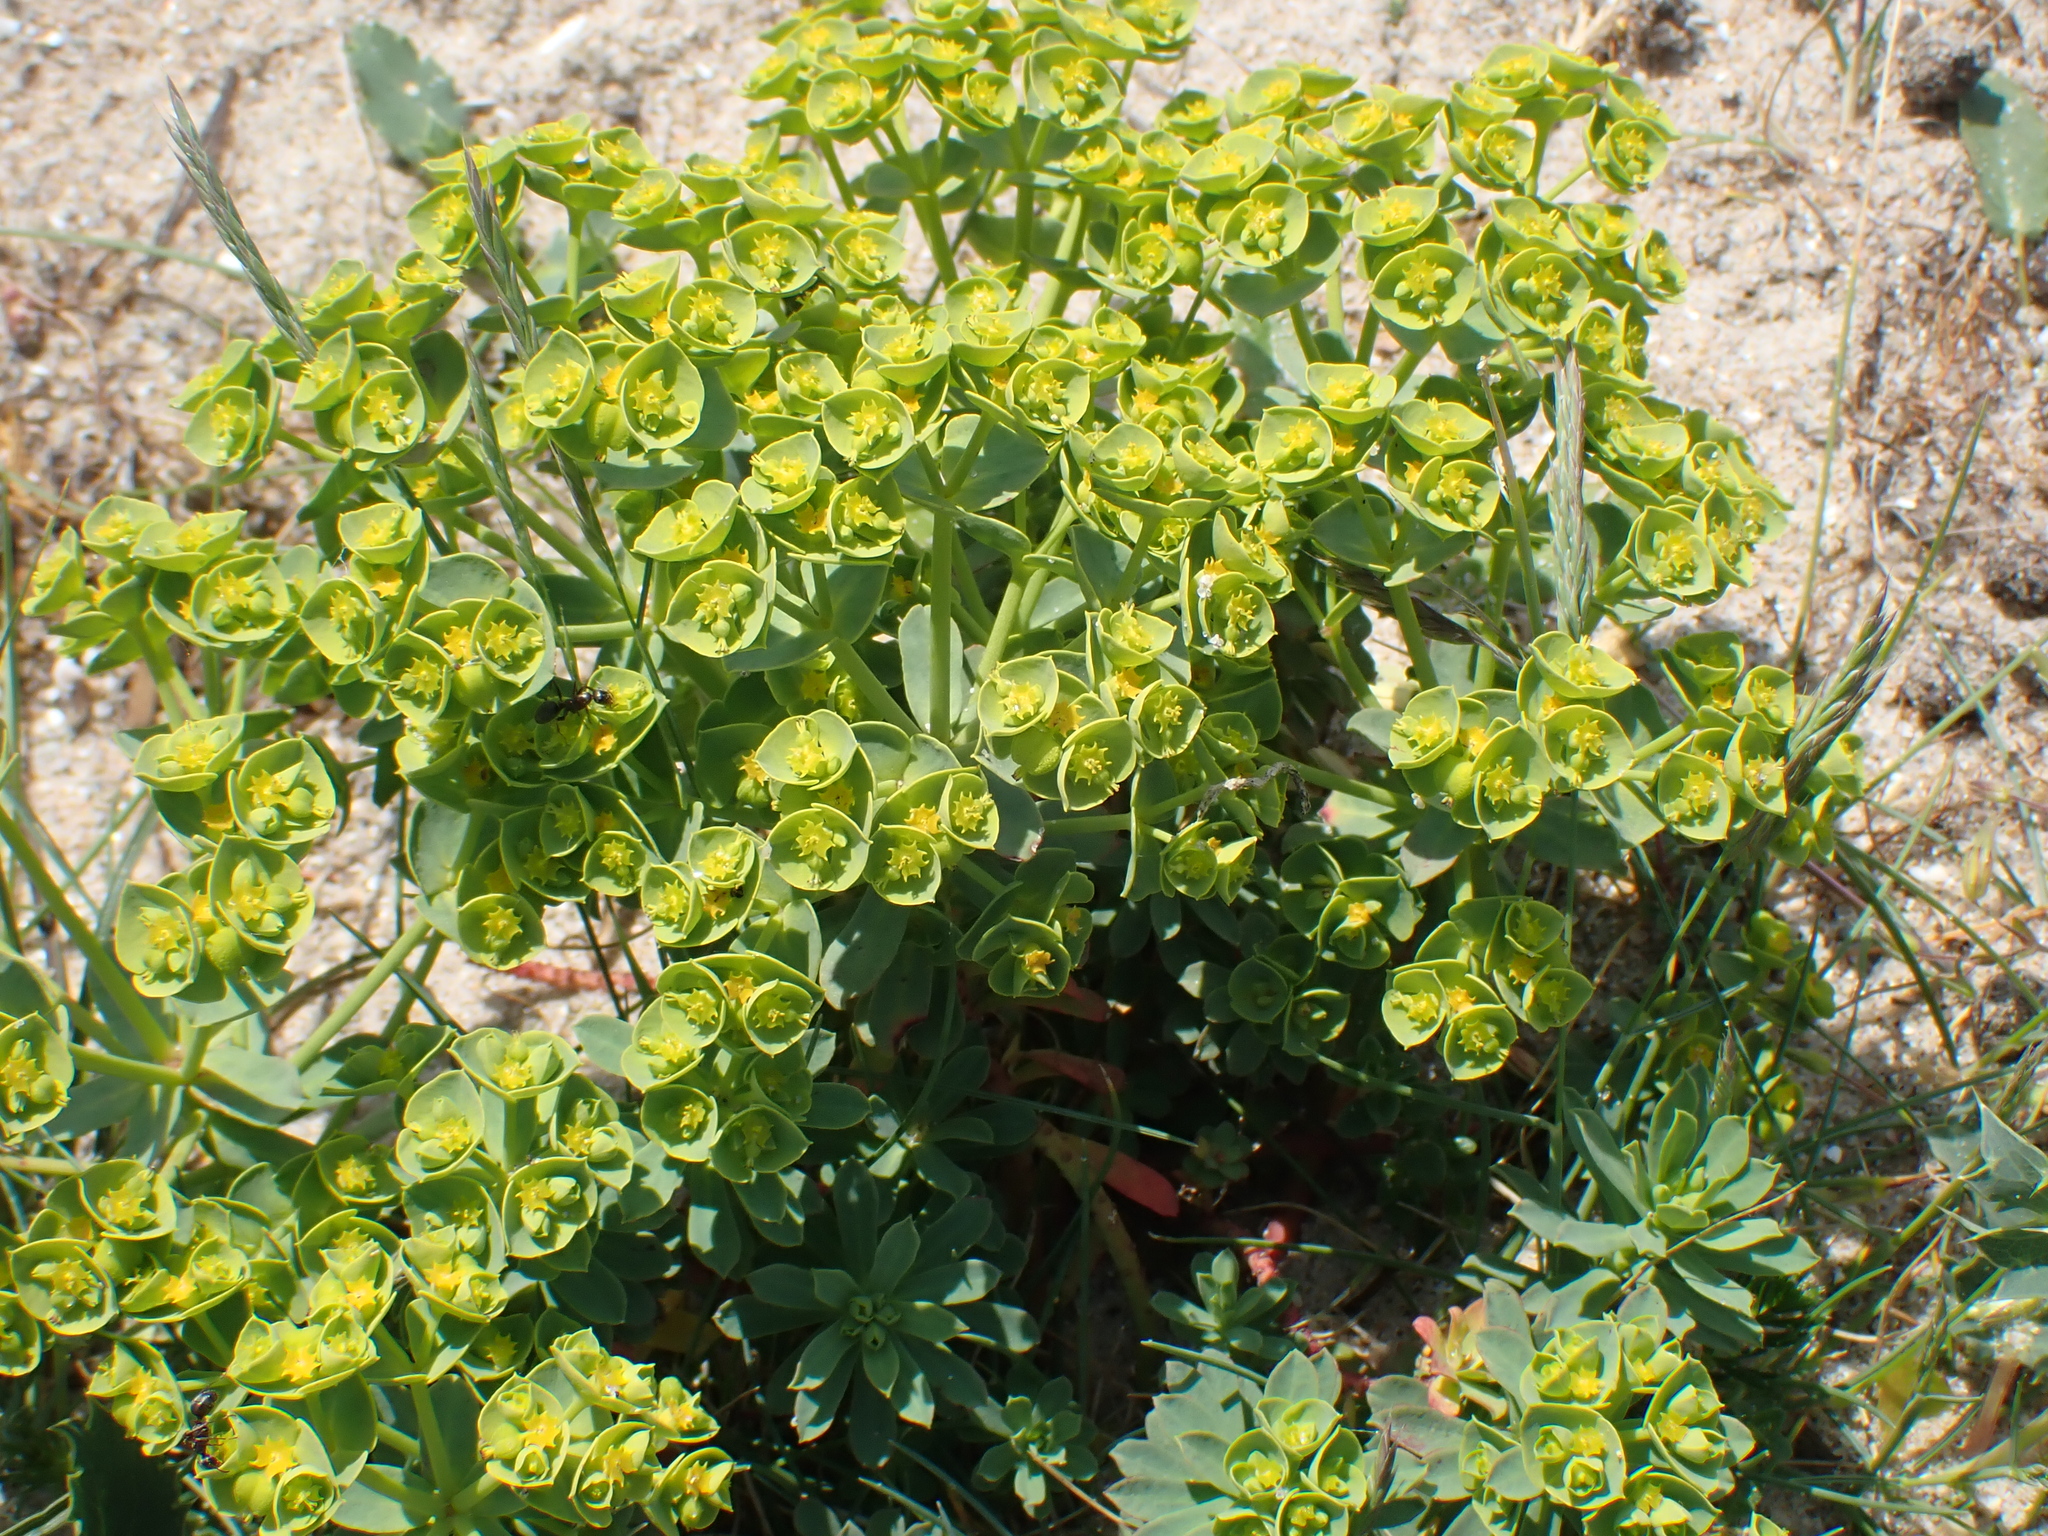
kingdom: Plantae
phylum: Tracheophyta
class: Magnoliopsida
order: Malpighiales
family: Euphorbiaceae
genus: Euphorbia
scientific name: Euphorbia portlandica
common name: Portland spurge
